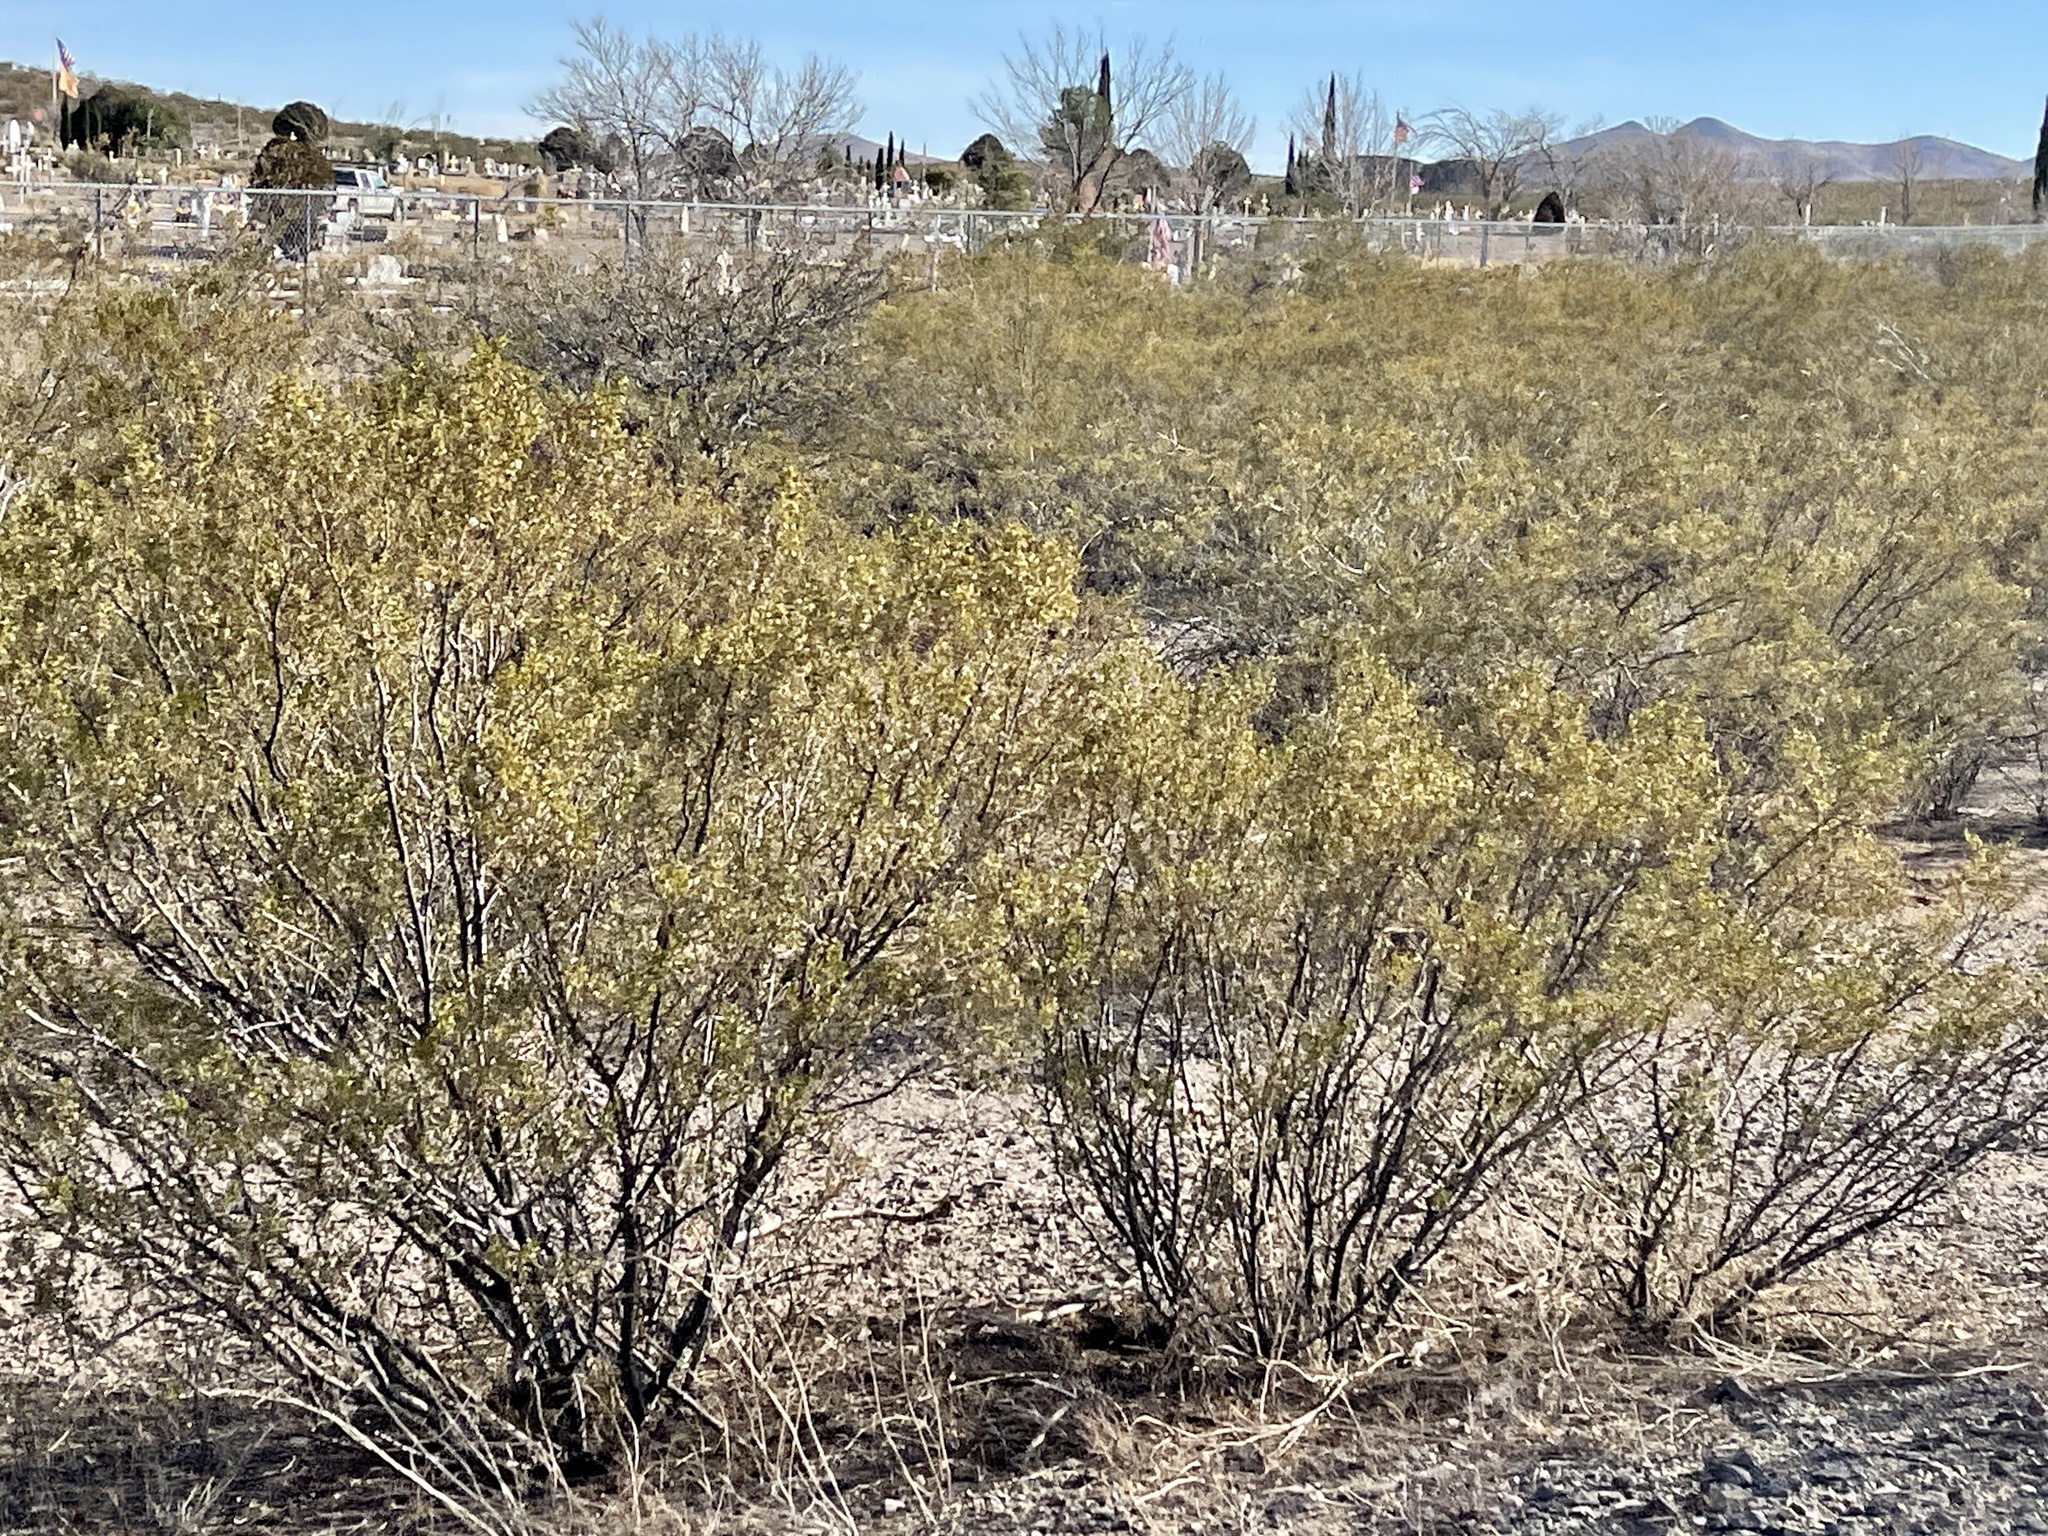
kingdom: Plantae
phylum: Tracheophyta
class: Magnoliopsida
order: Zygophyllales
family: Zygophyllaceae
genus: Larrea
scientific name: Larrea tridentata
